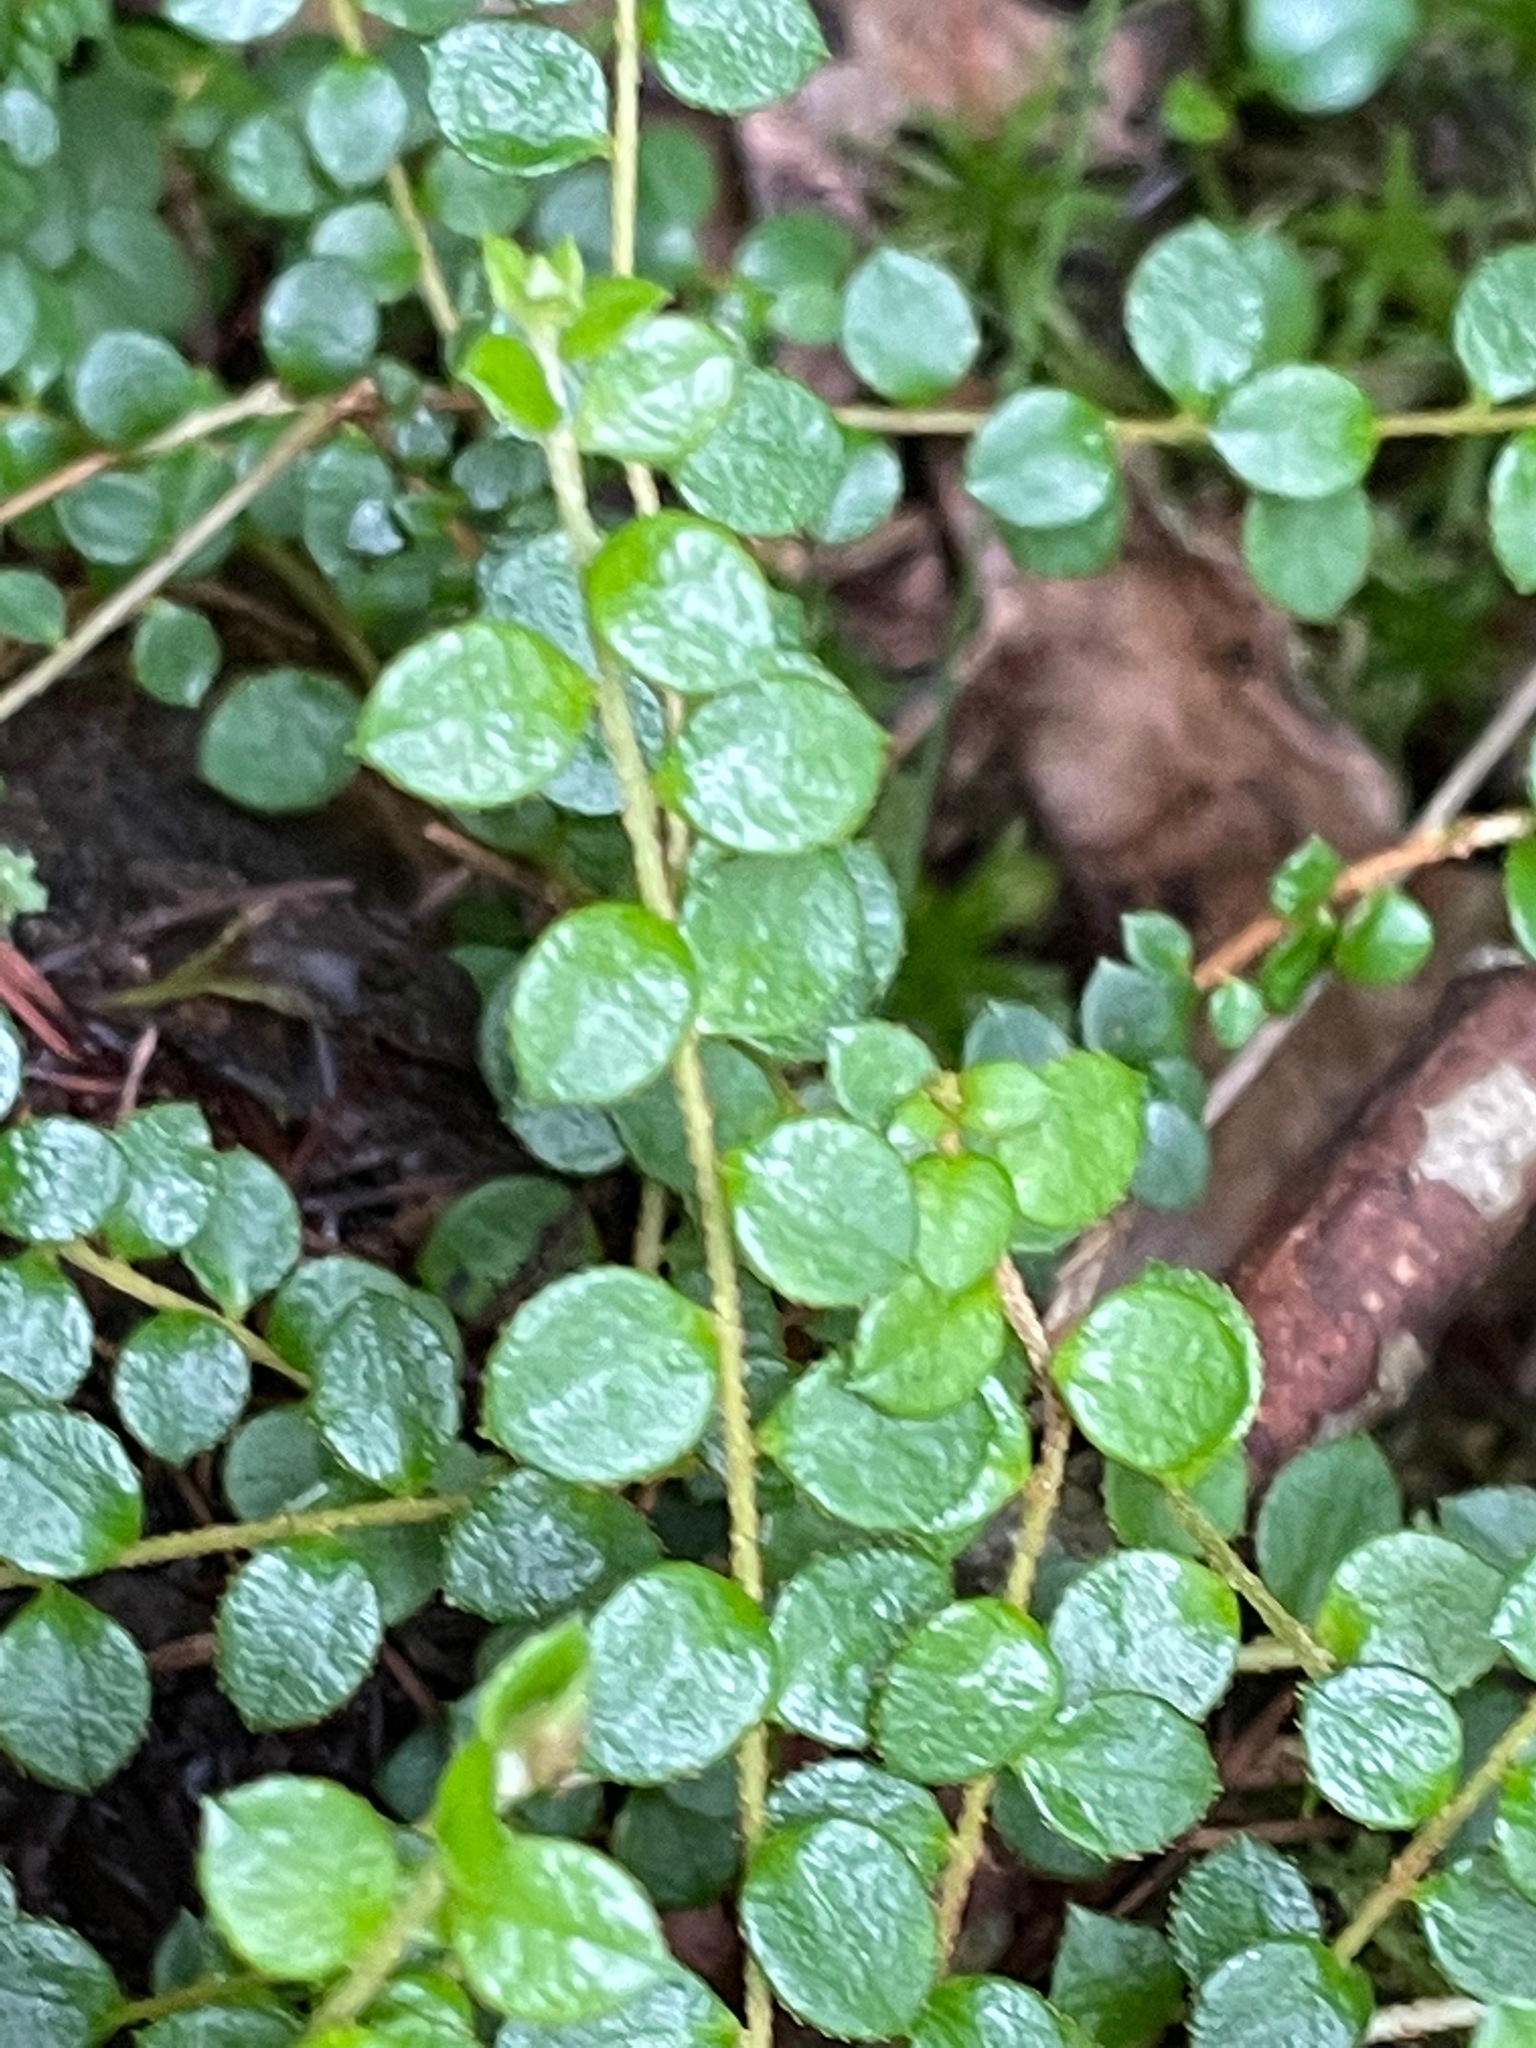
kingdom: Plantae
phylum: Tracheophyta
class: Magnoliopsida
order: Ericales
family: Ericaceae
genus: Gaultheria
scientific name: Gaultheria hispidula
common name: Cancer wintergreen
